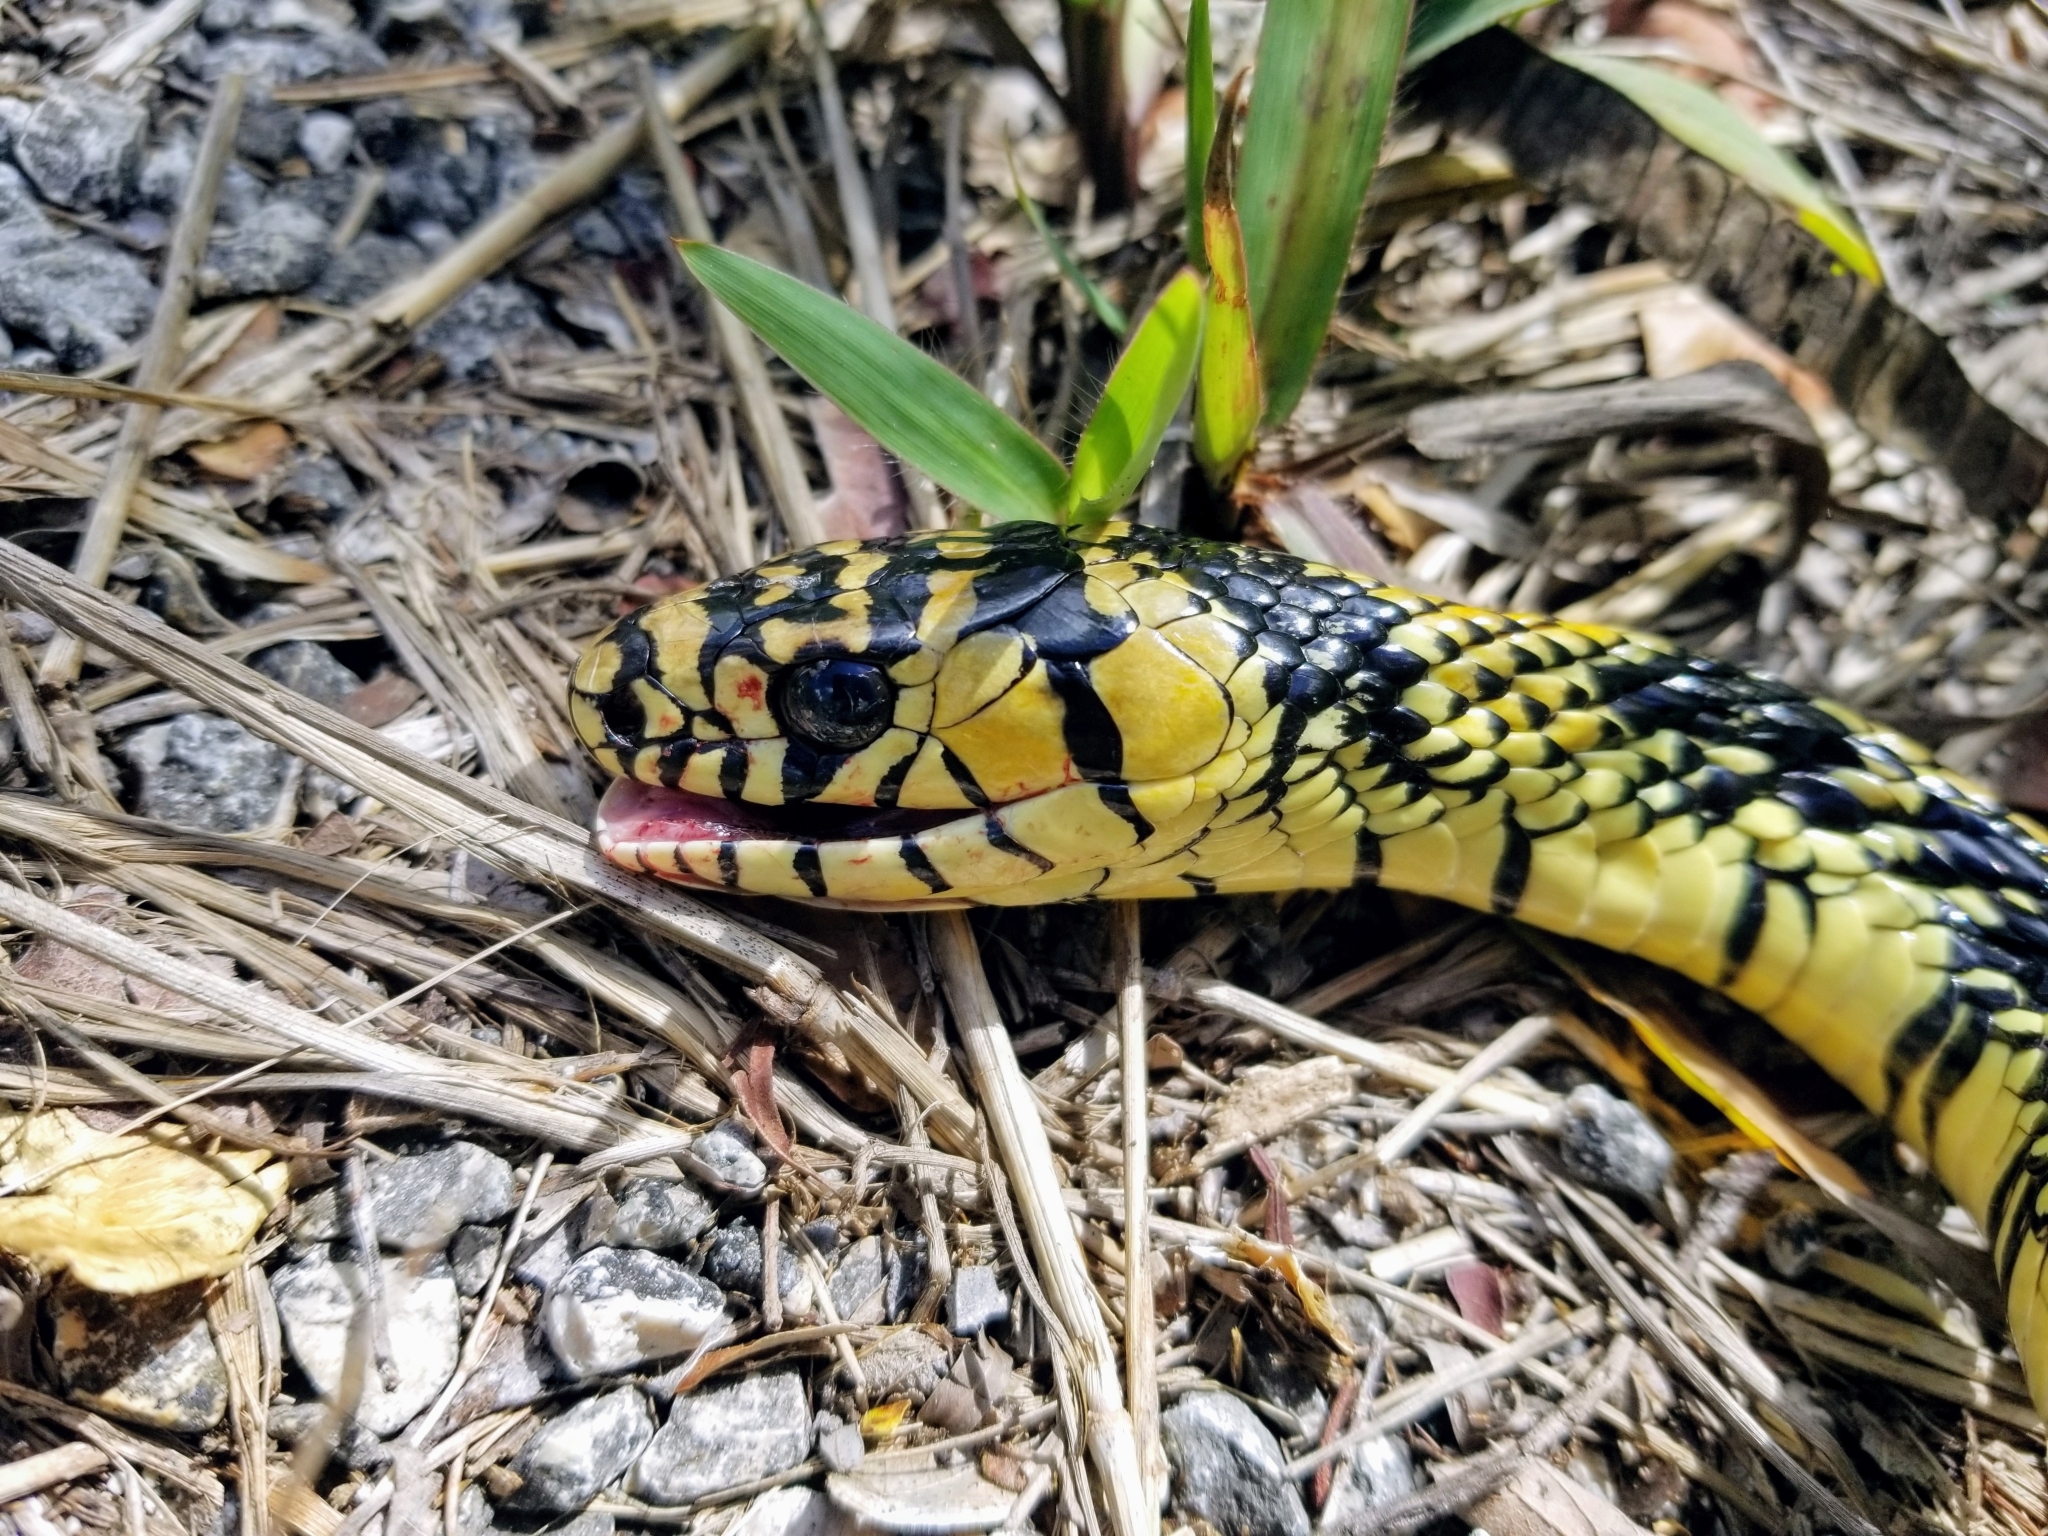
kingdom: Animalia
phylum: Chordata
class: Squamata
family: Colubridae
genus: Spilotes
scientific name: Spilotes pullatus
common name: Chicken snake
